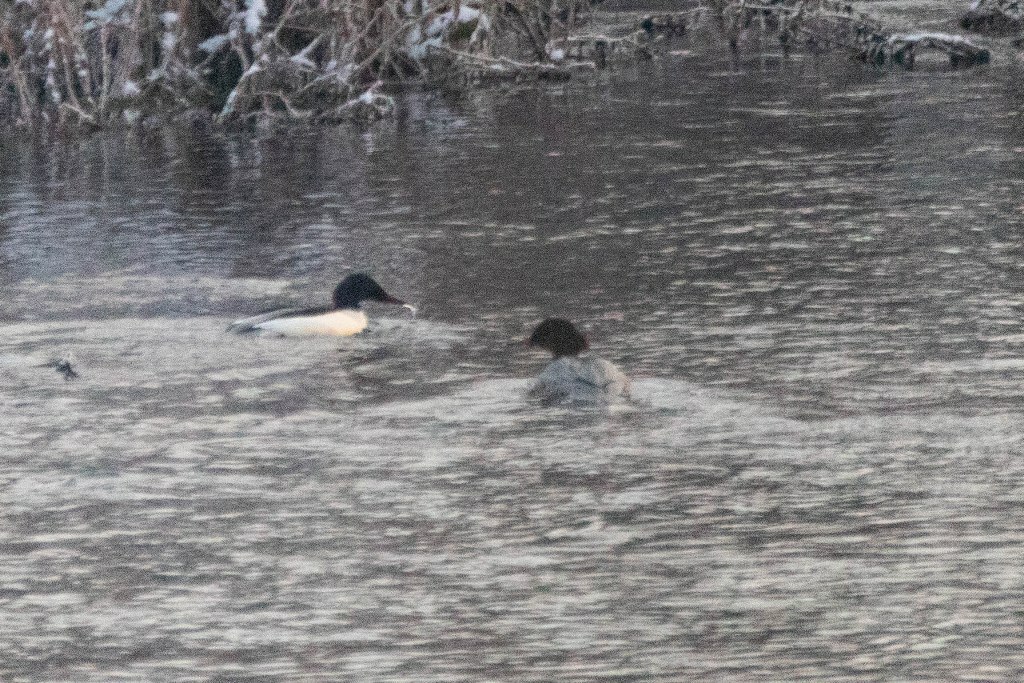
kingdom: Animalia
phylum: Chordata
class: Aves
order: Anseriformes
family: Anatidae
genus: Mergus
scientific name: Mergus merganser
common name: Common merganser
